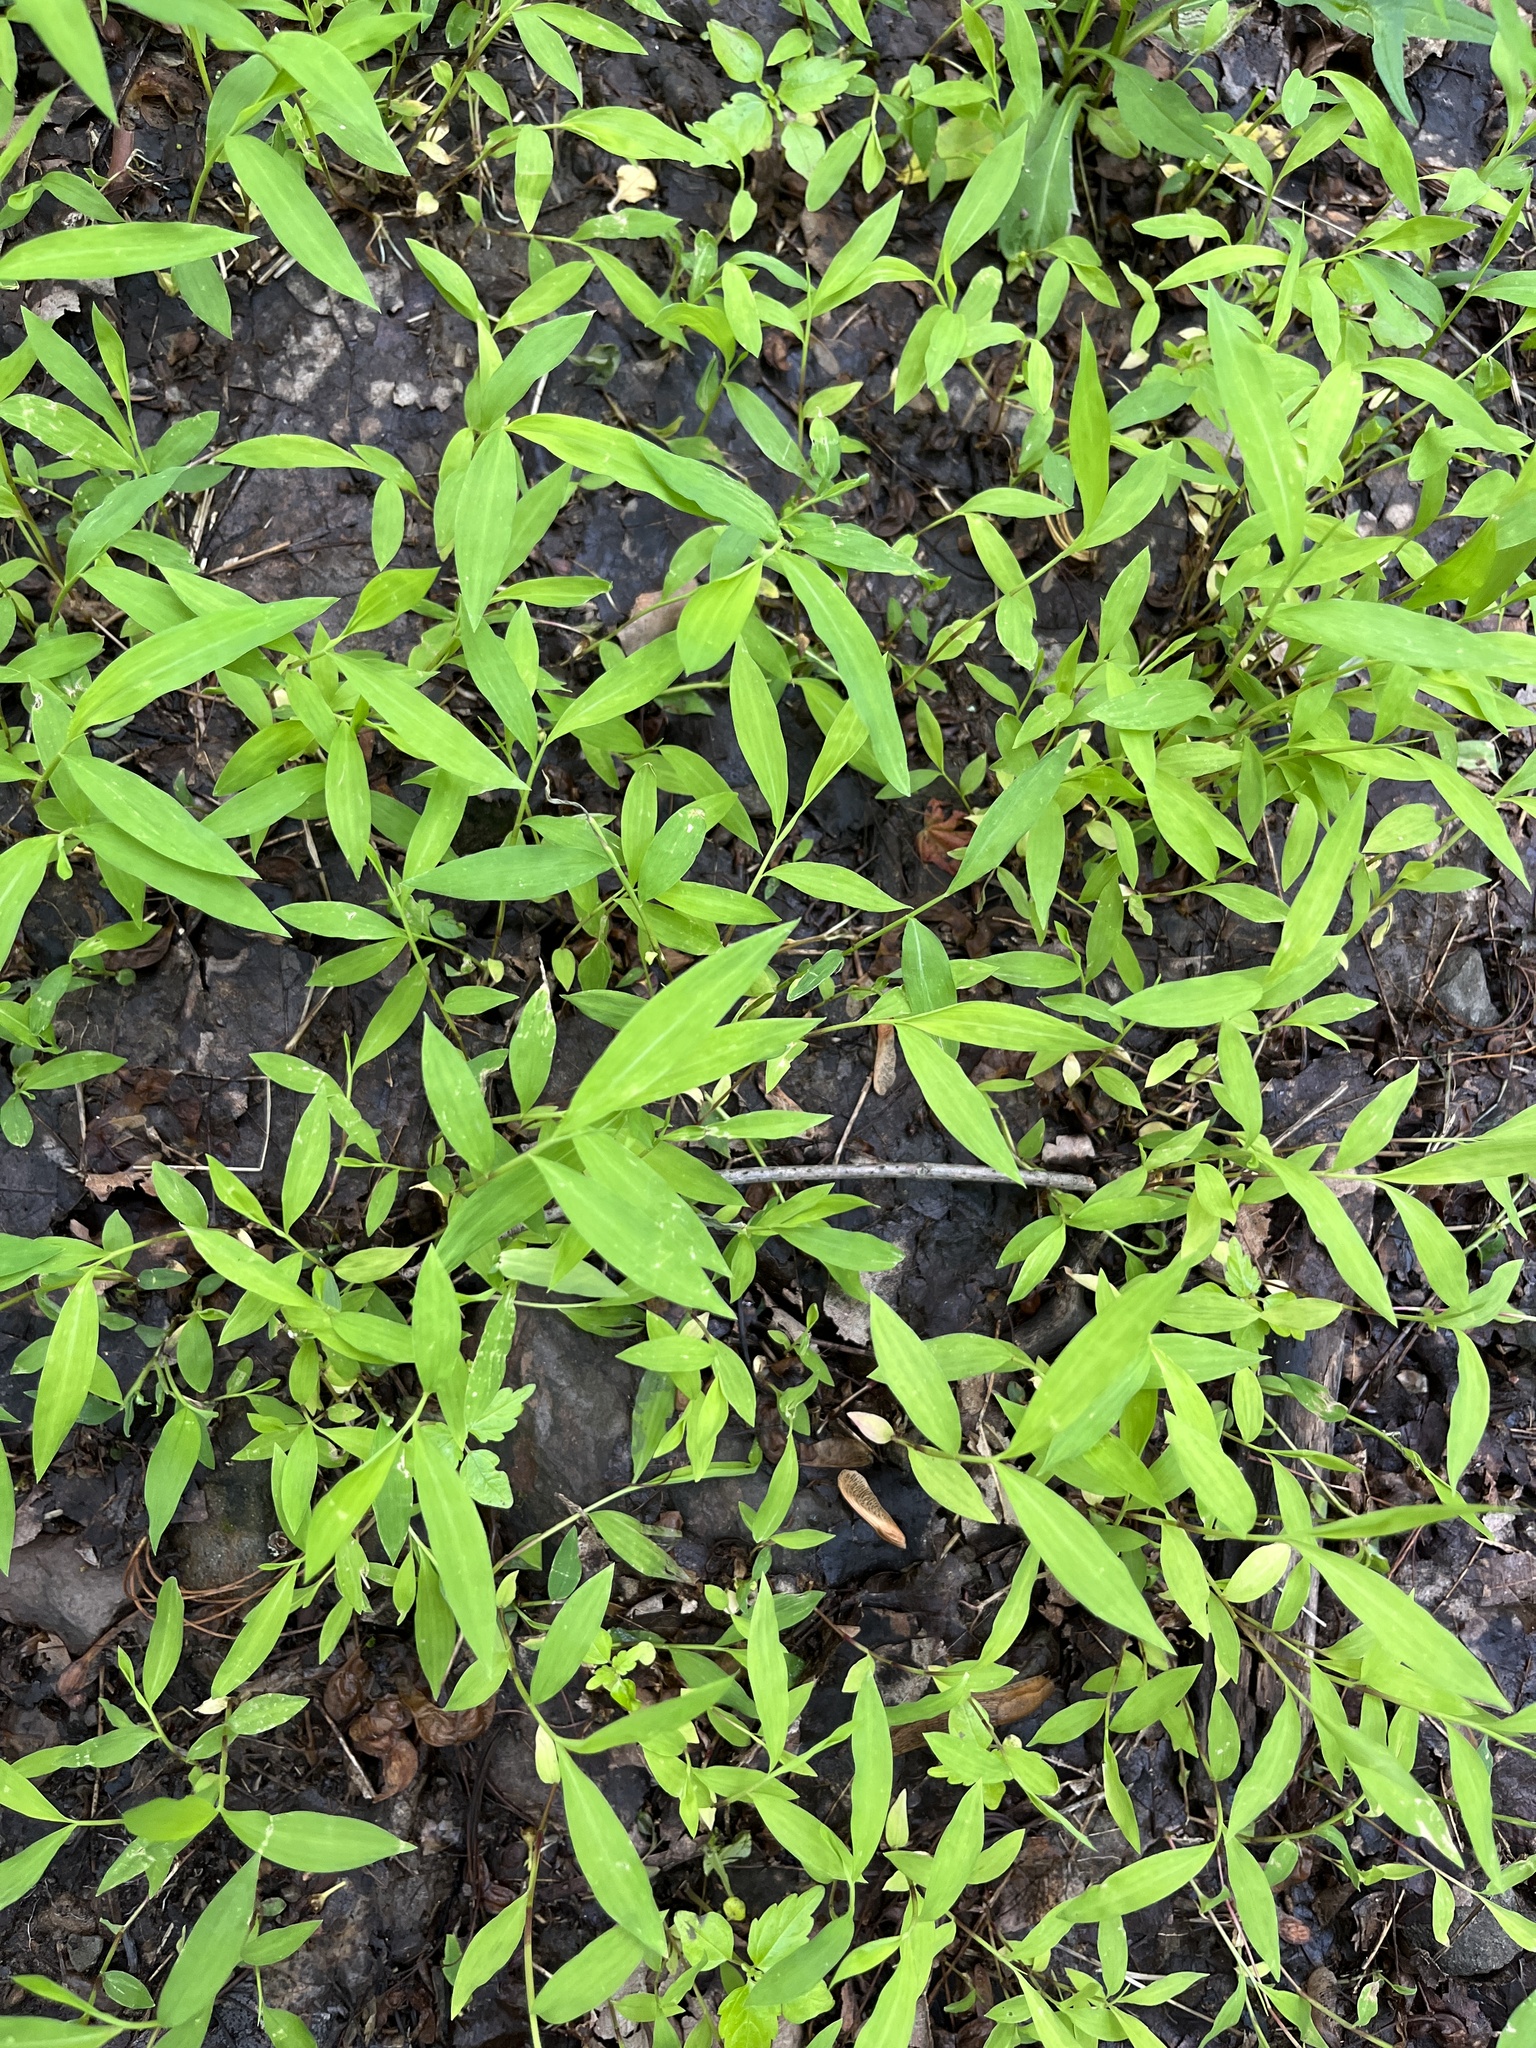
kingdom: Plantae
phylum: Tracheophyta
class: Liliopsida
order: Poales
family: Poaceae
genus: Microstegium
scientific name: Microstegium vimineum
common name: Japanese stiltgrass
